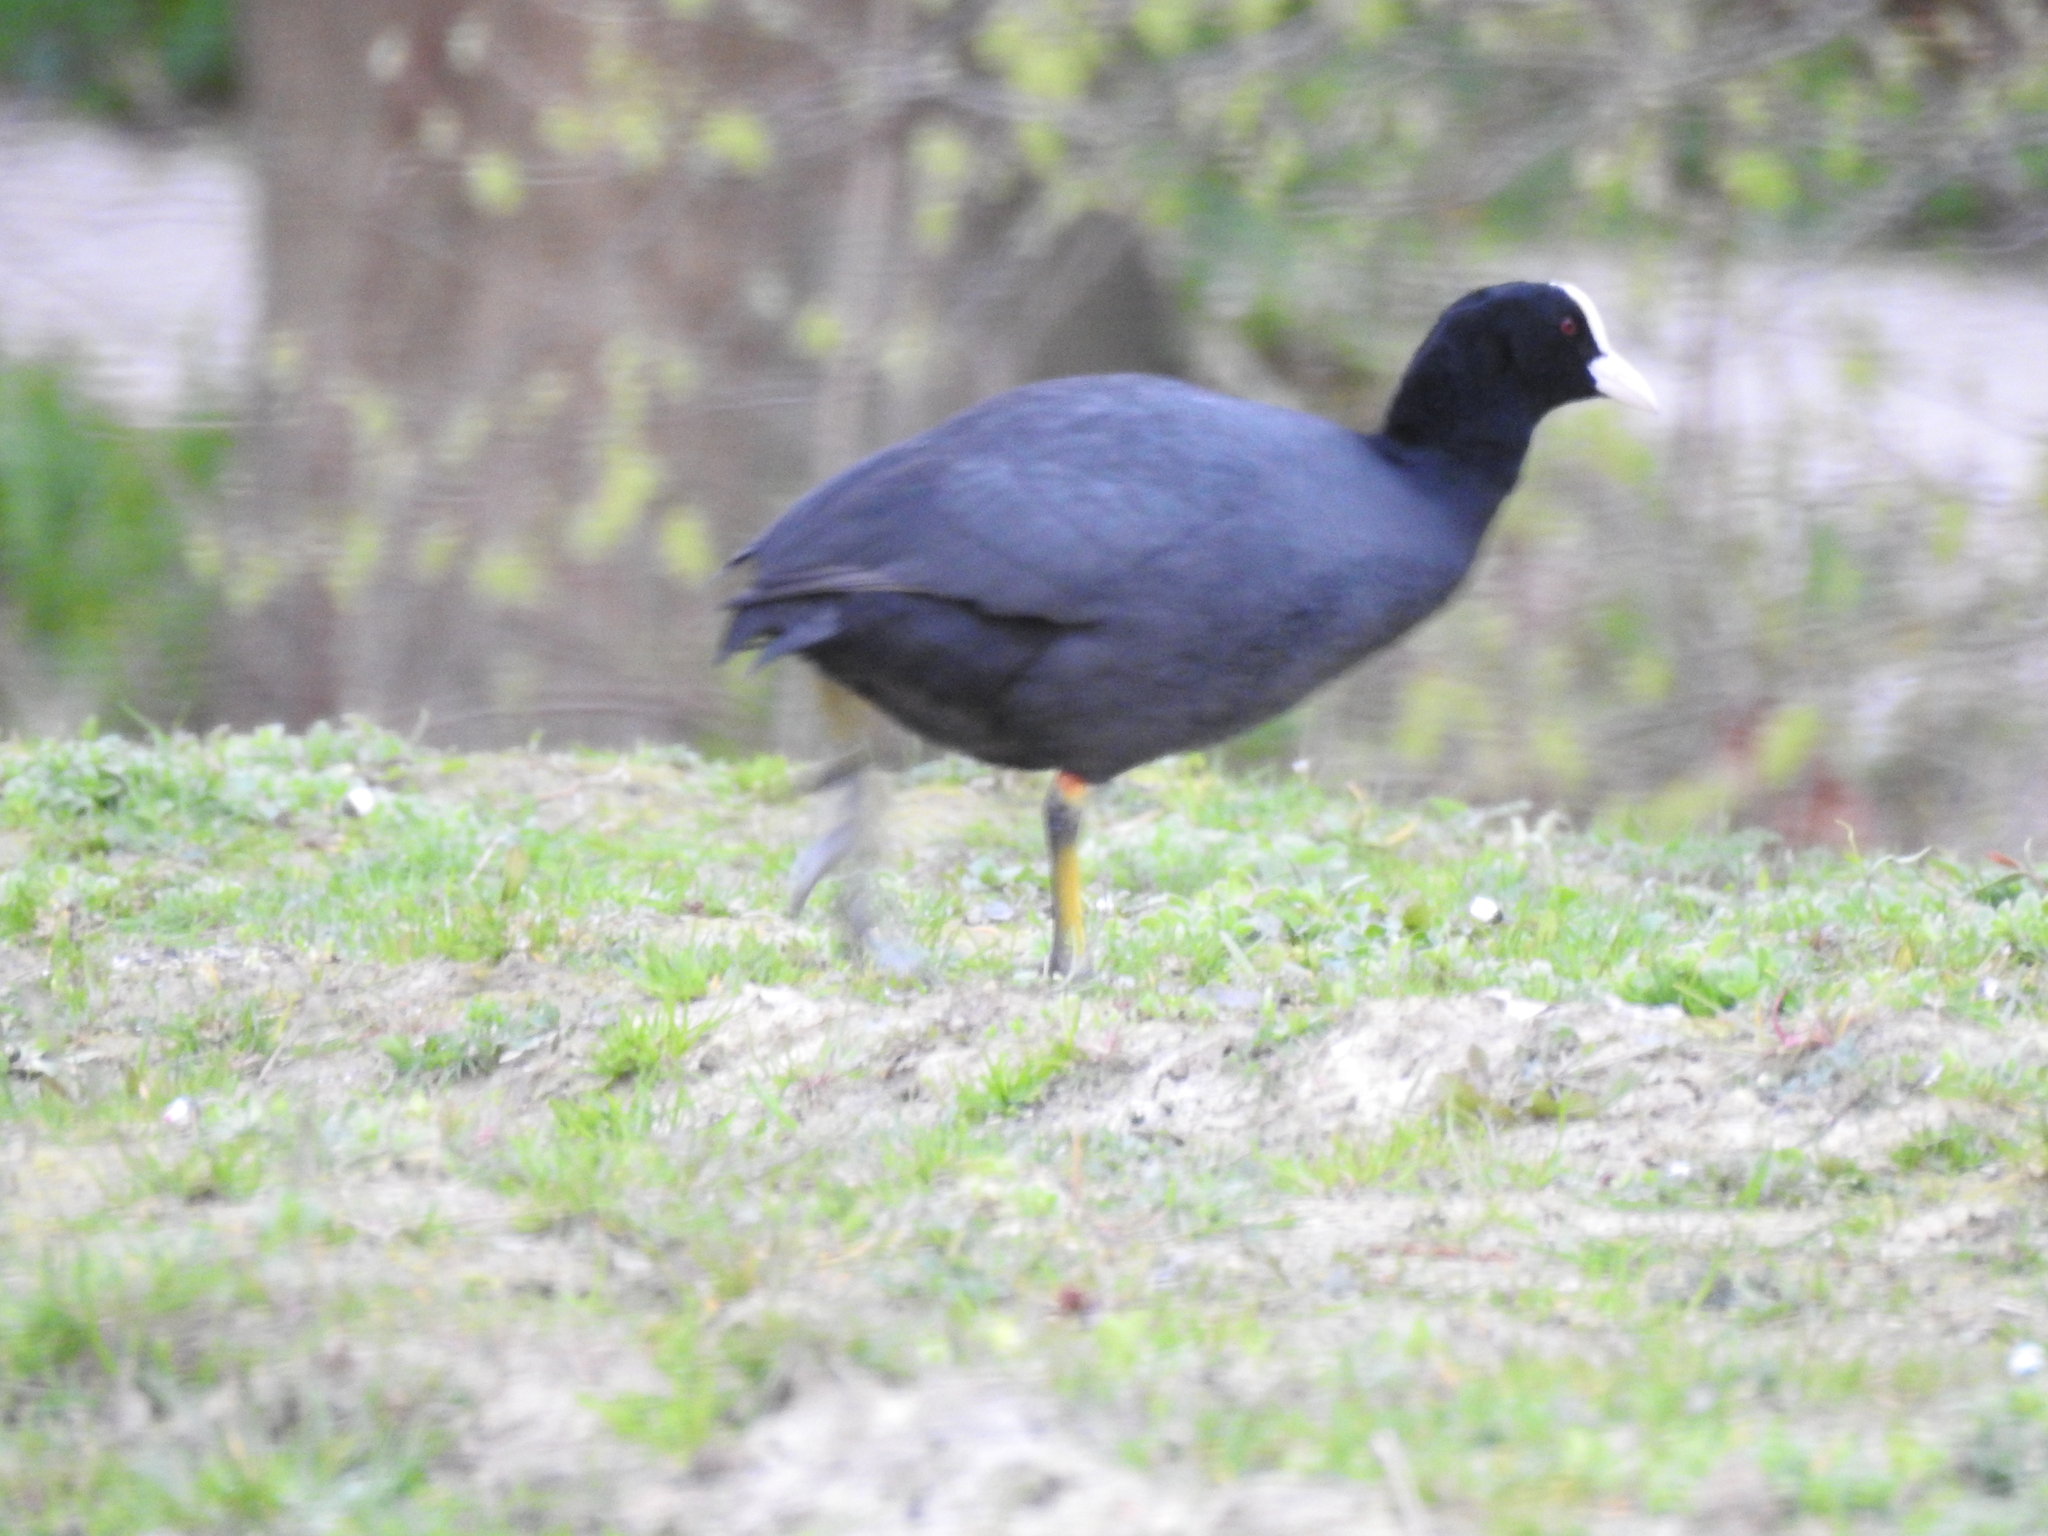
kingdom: Animalia
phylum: Chordata
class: Aves
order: Gruiformes
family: Rallidae
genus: Fulica
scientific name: Fulica atra
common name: Eurasian coot
